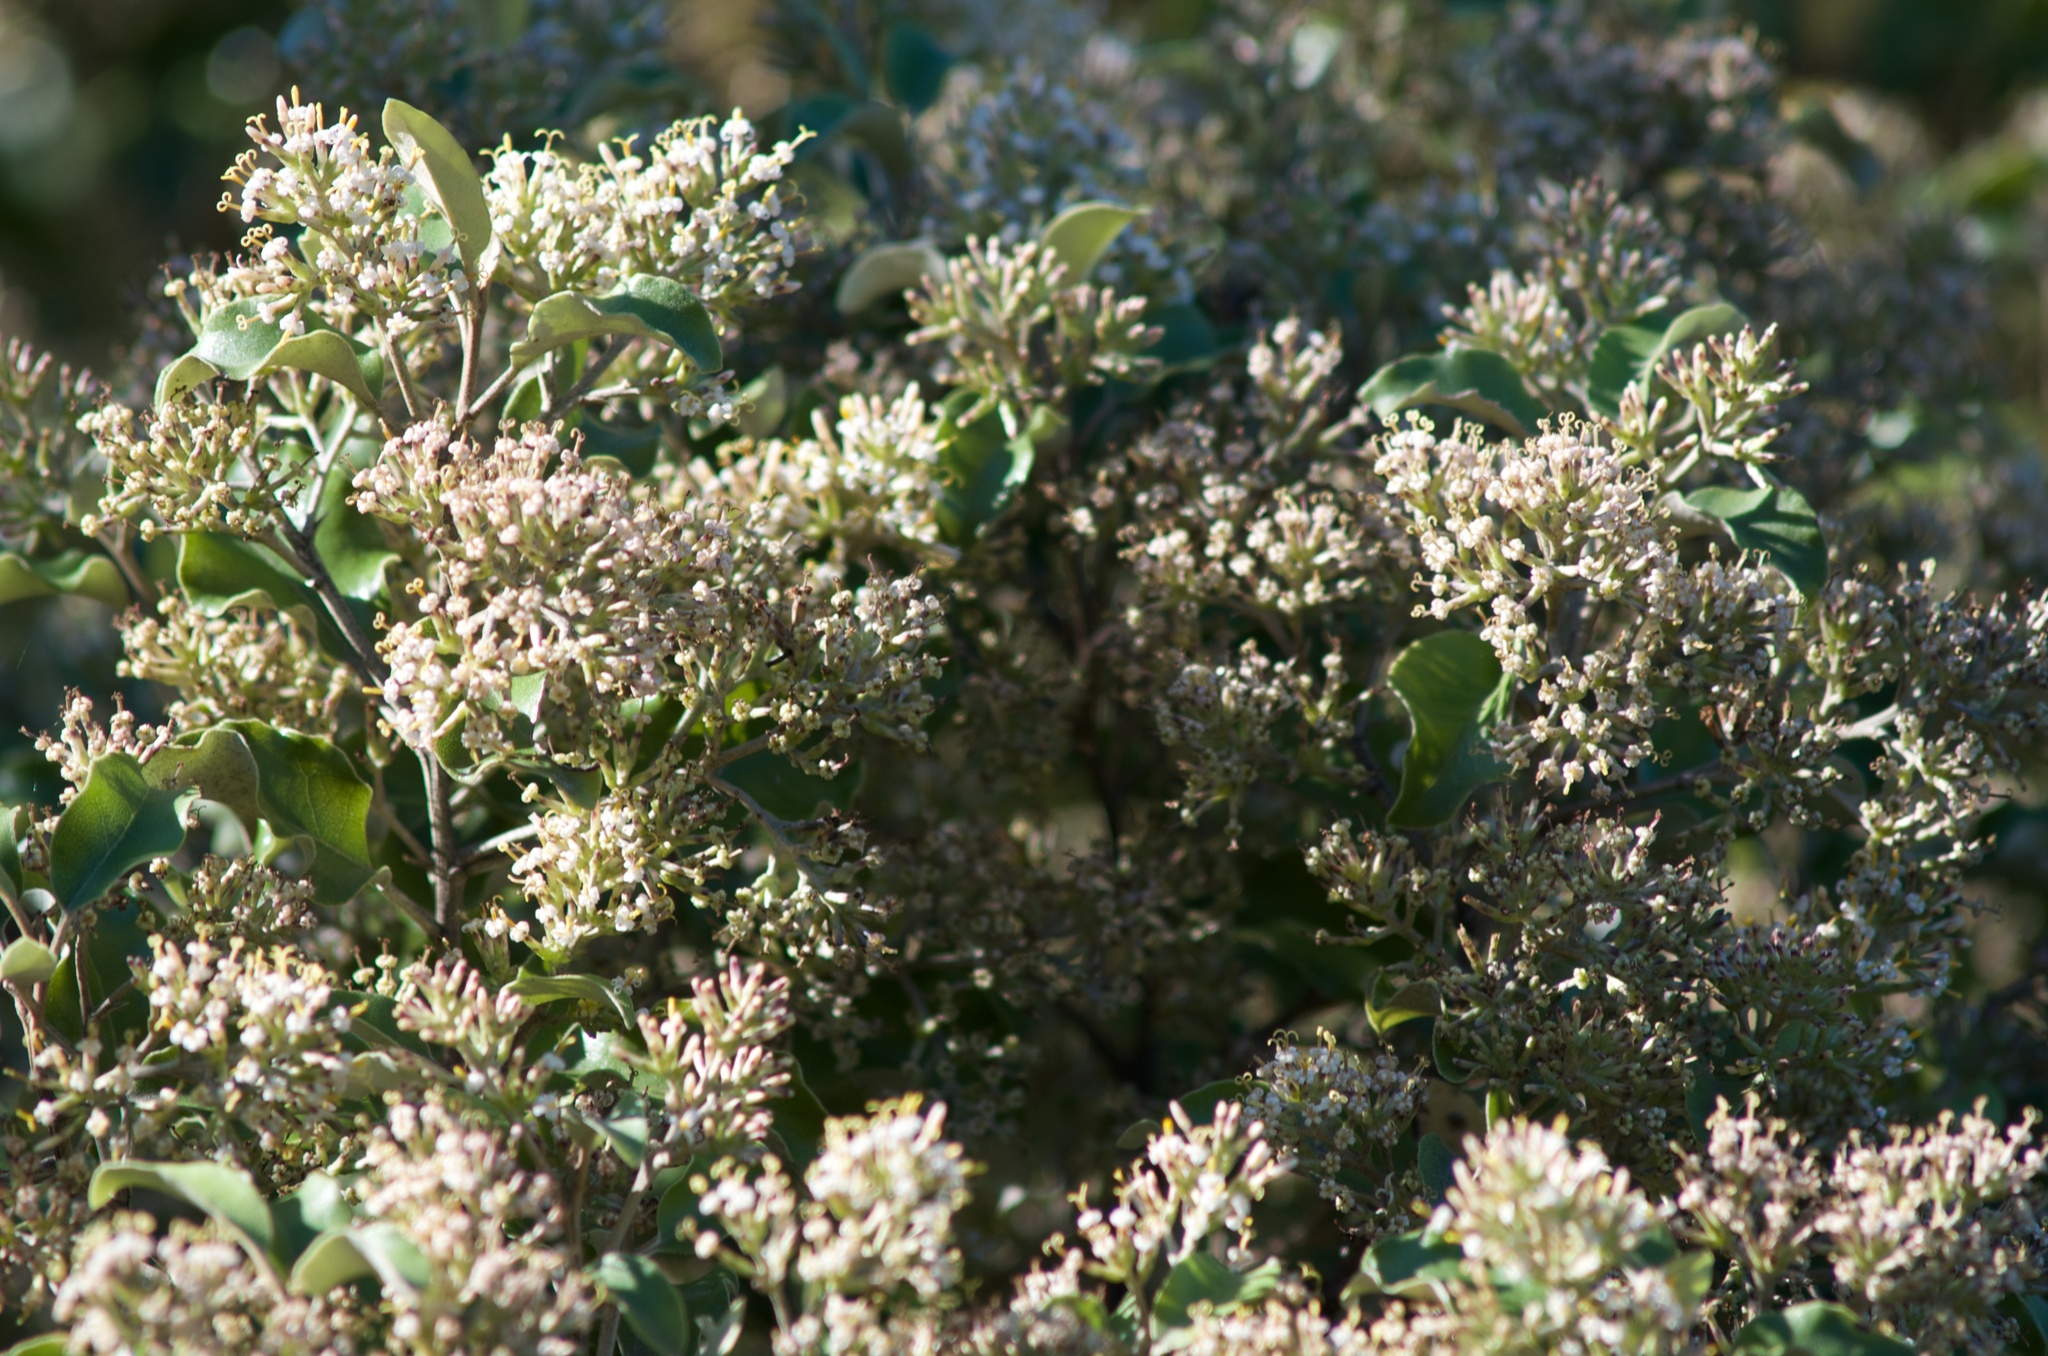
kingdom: Plantae
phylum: Tracheophyta
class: Magnoliopsida
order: Asterales
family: Asteraceae
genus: Olearia
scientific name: Olearia paniculata
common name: Akiraho
